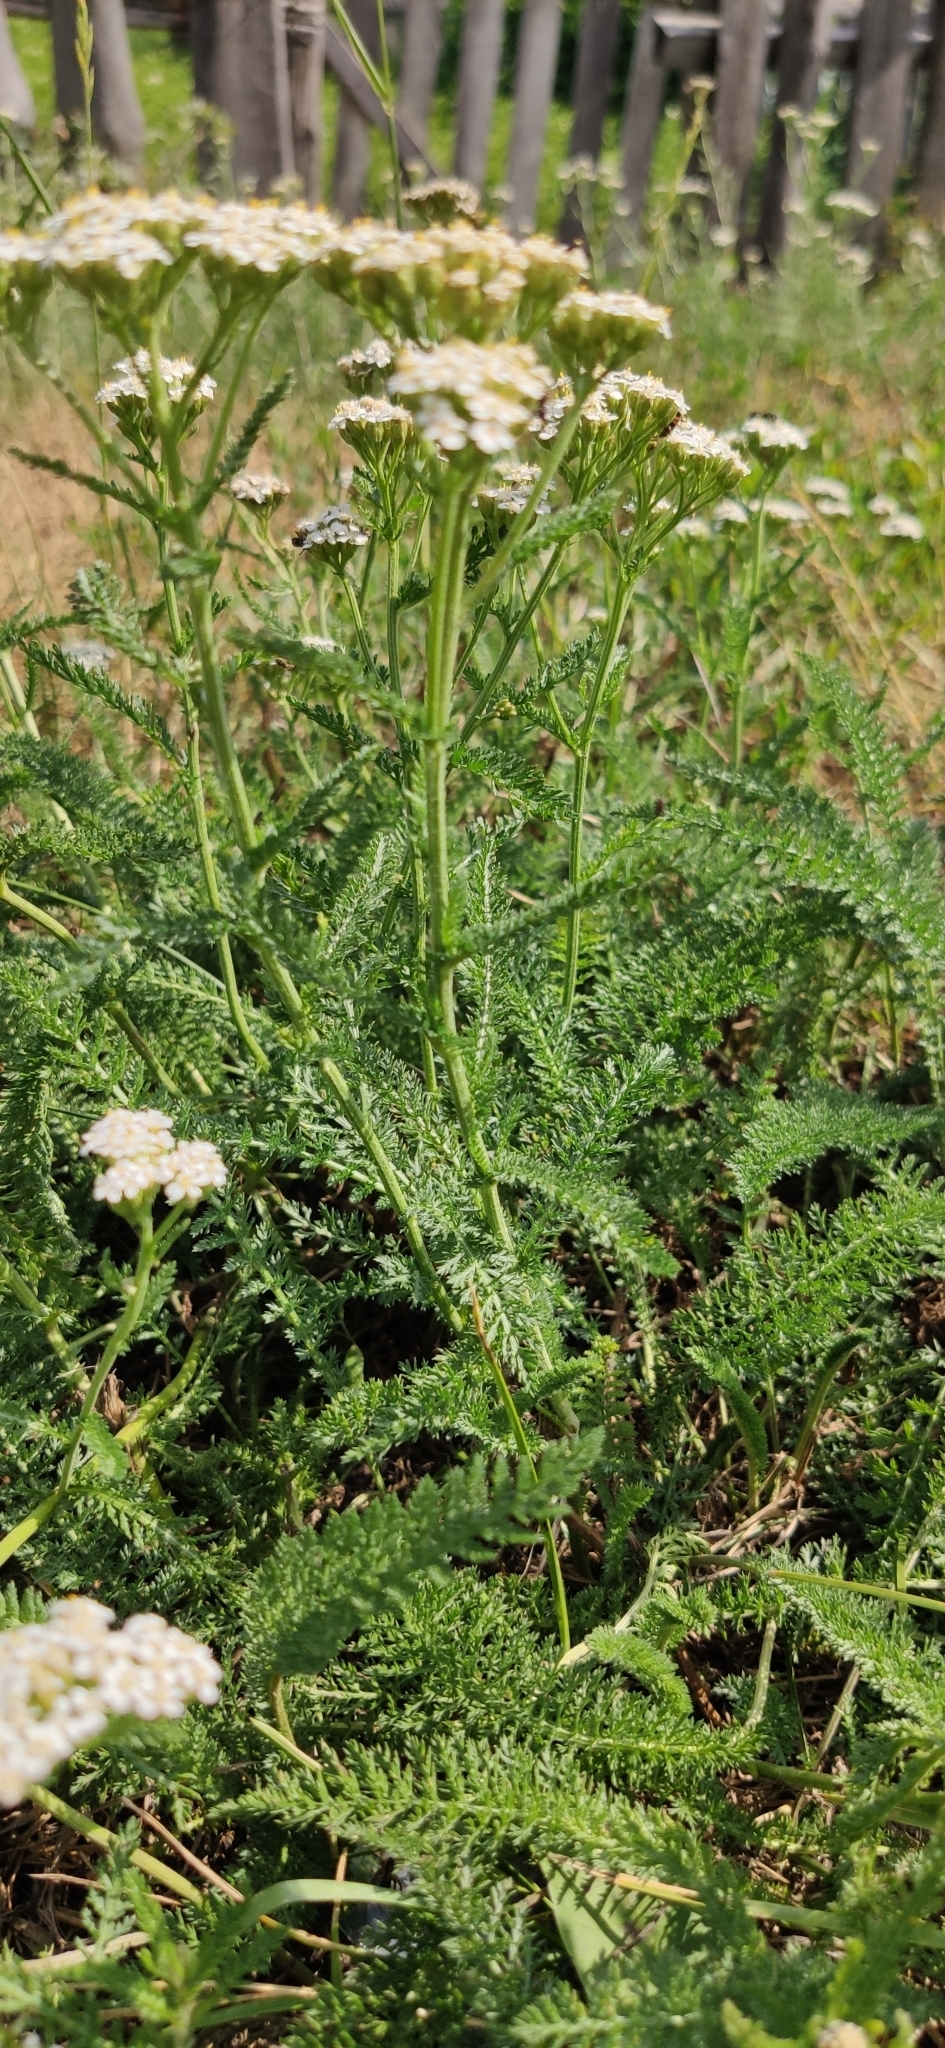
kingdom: Plantae
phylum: Tracheophyta
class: Magnoliopsida
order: Asterales
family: Asteraceae
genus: Achillea
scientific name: Achillea millefolium
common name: Yarrow
